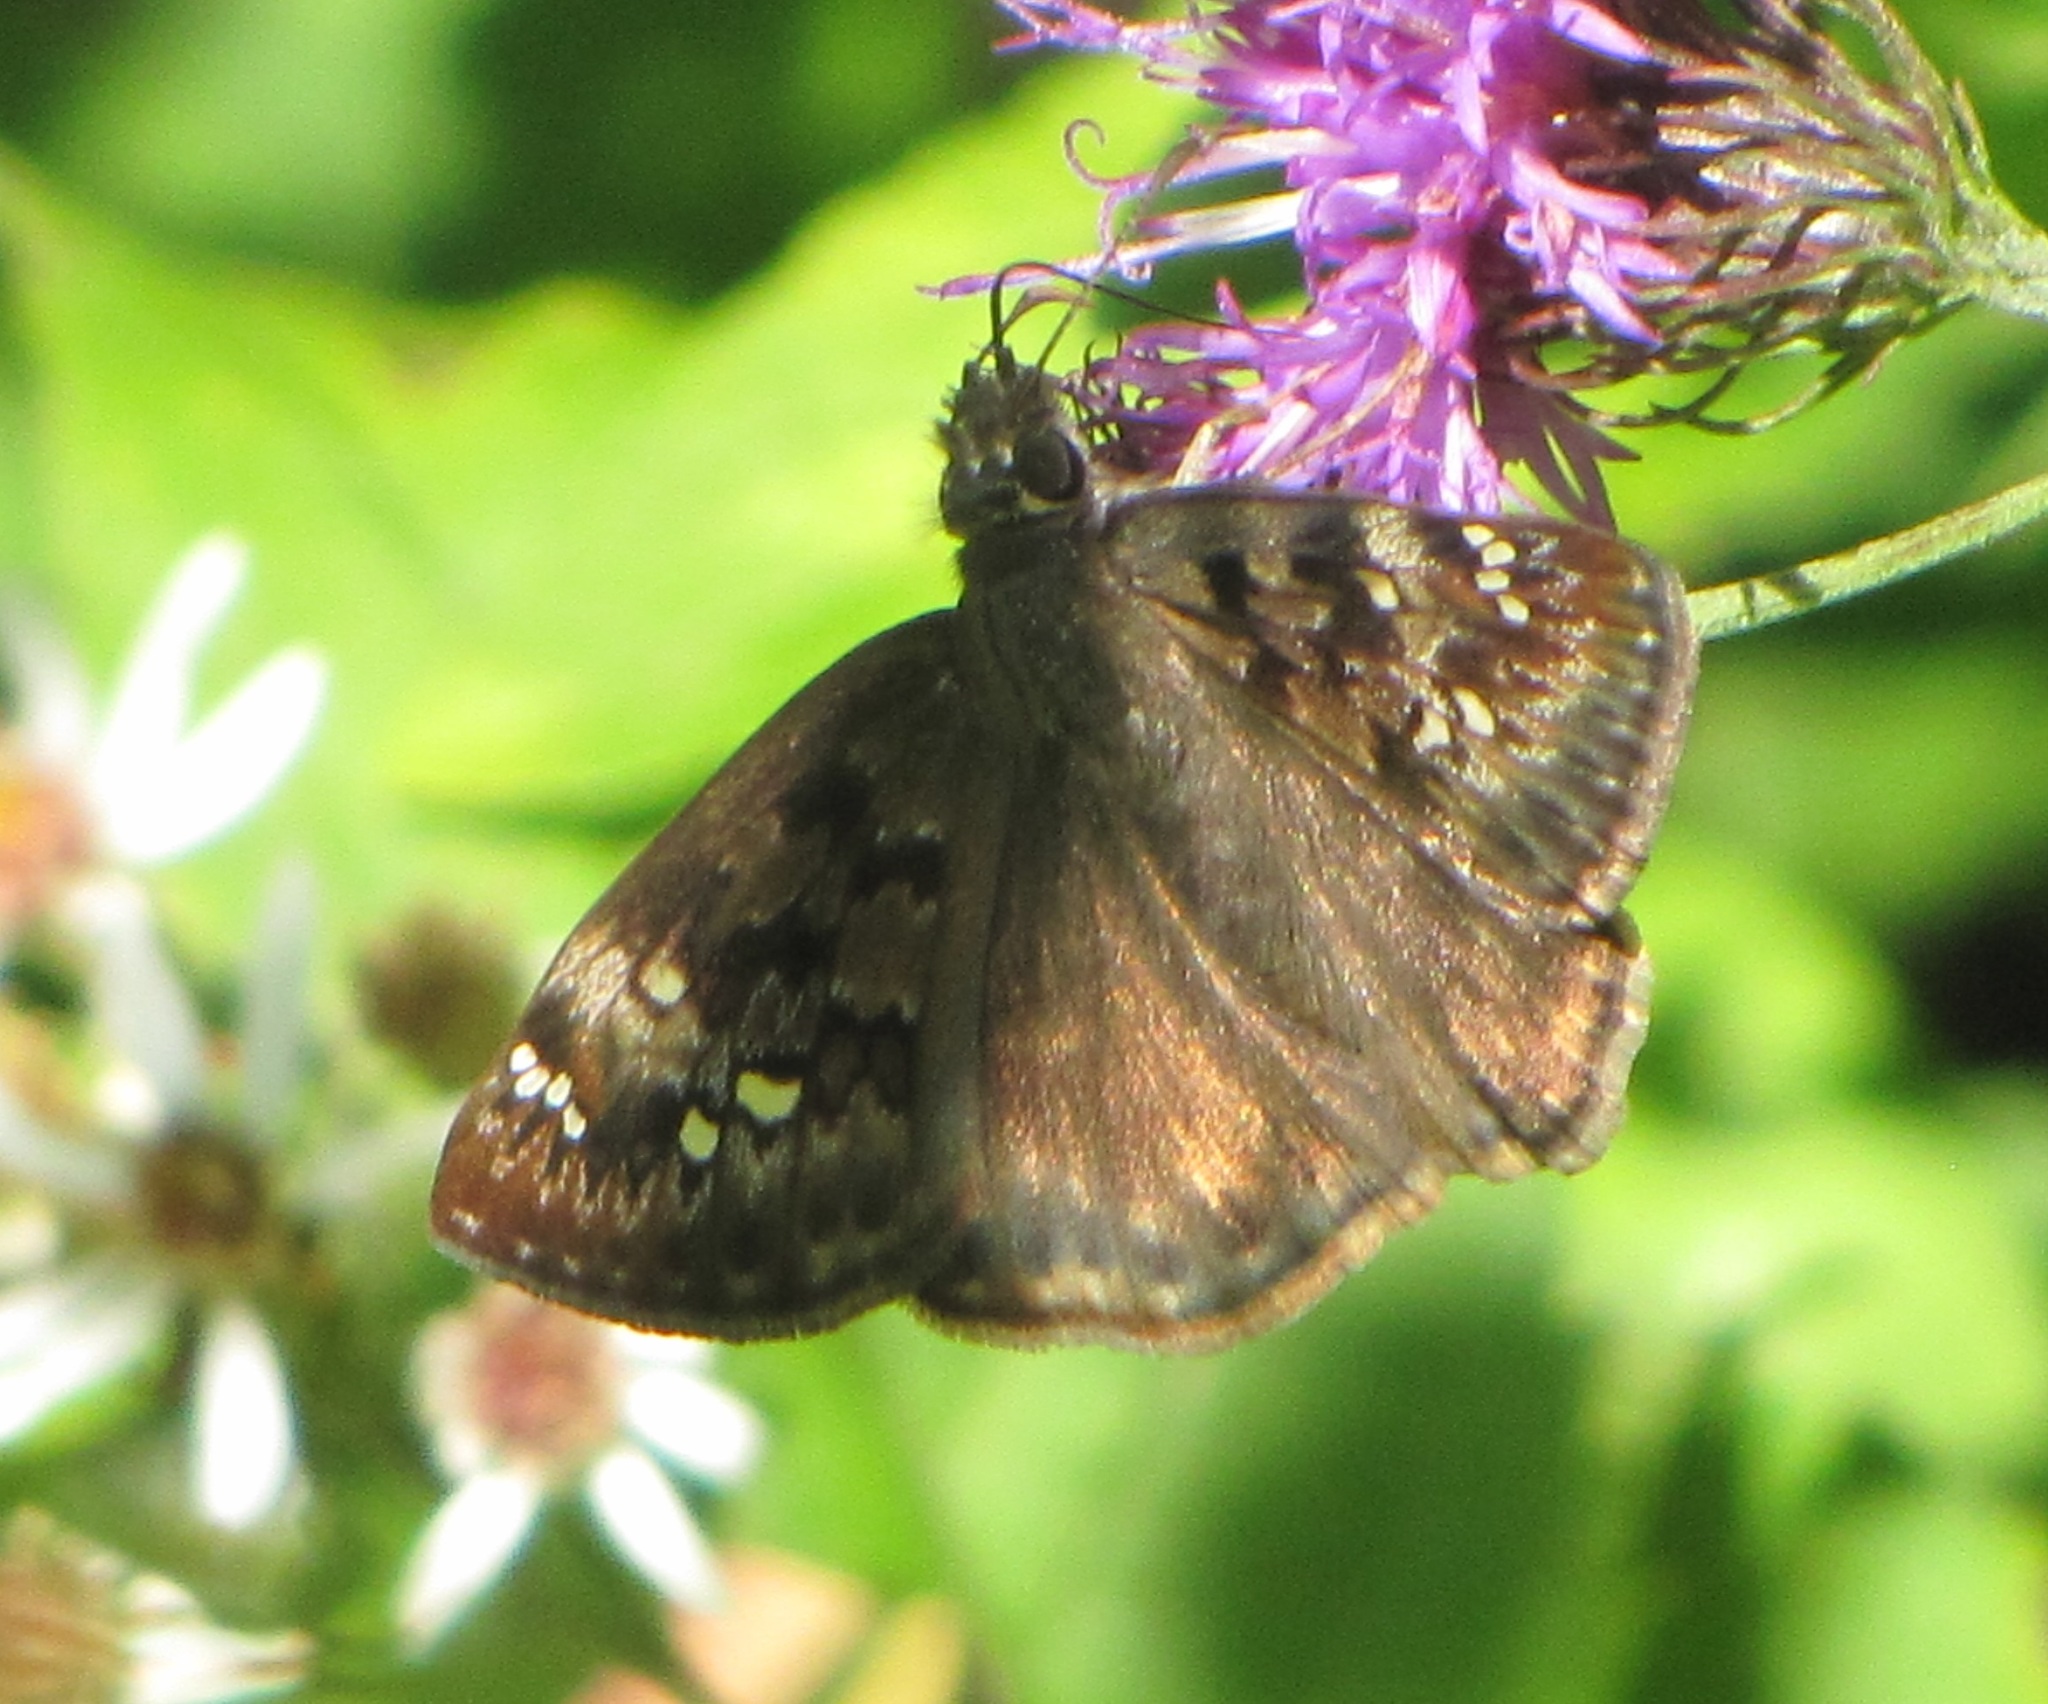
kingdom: Animalia
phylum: Arthropoda
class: Insecta
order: Lepidoptera
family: Hesperiidae
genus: Erynnis
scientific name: Erynnis horatius
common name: Horace's duskywing
